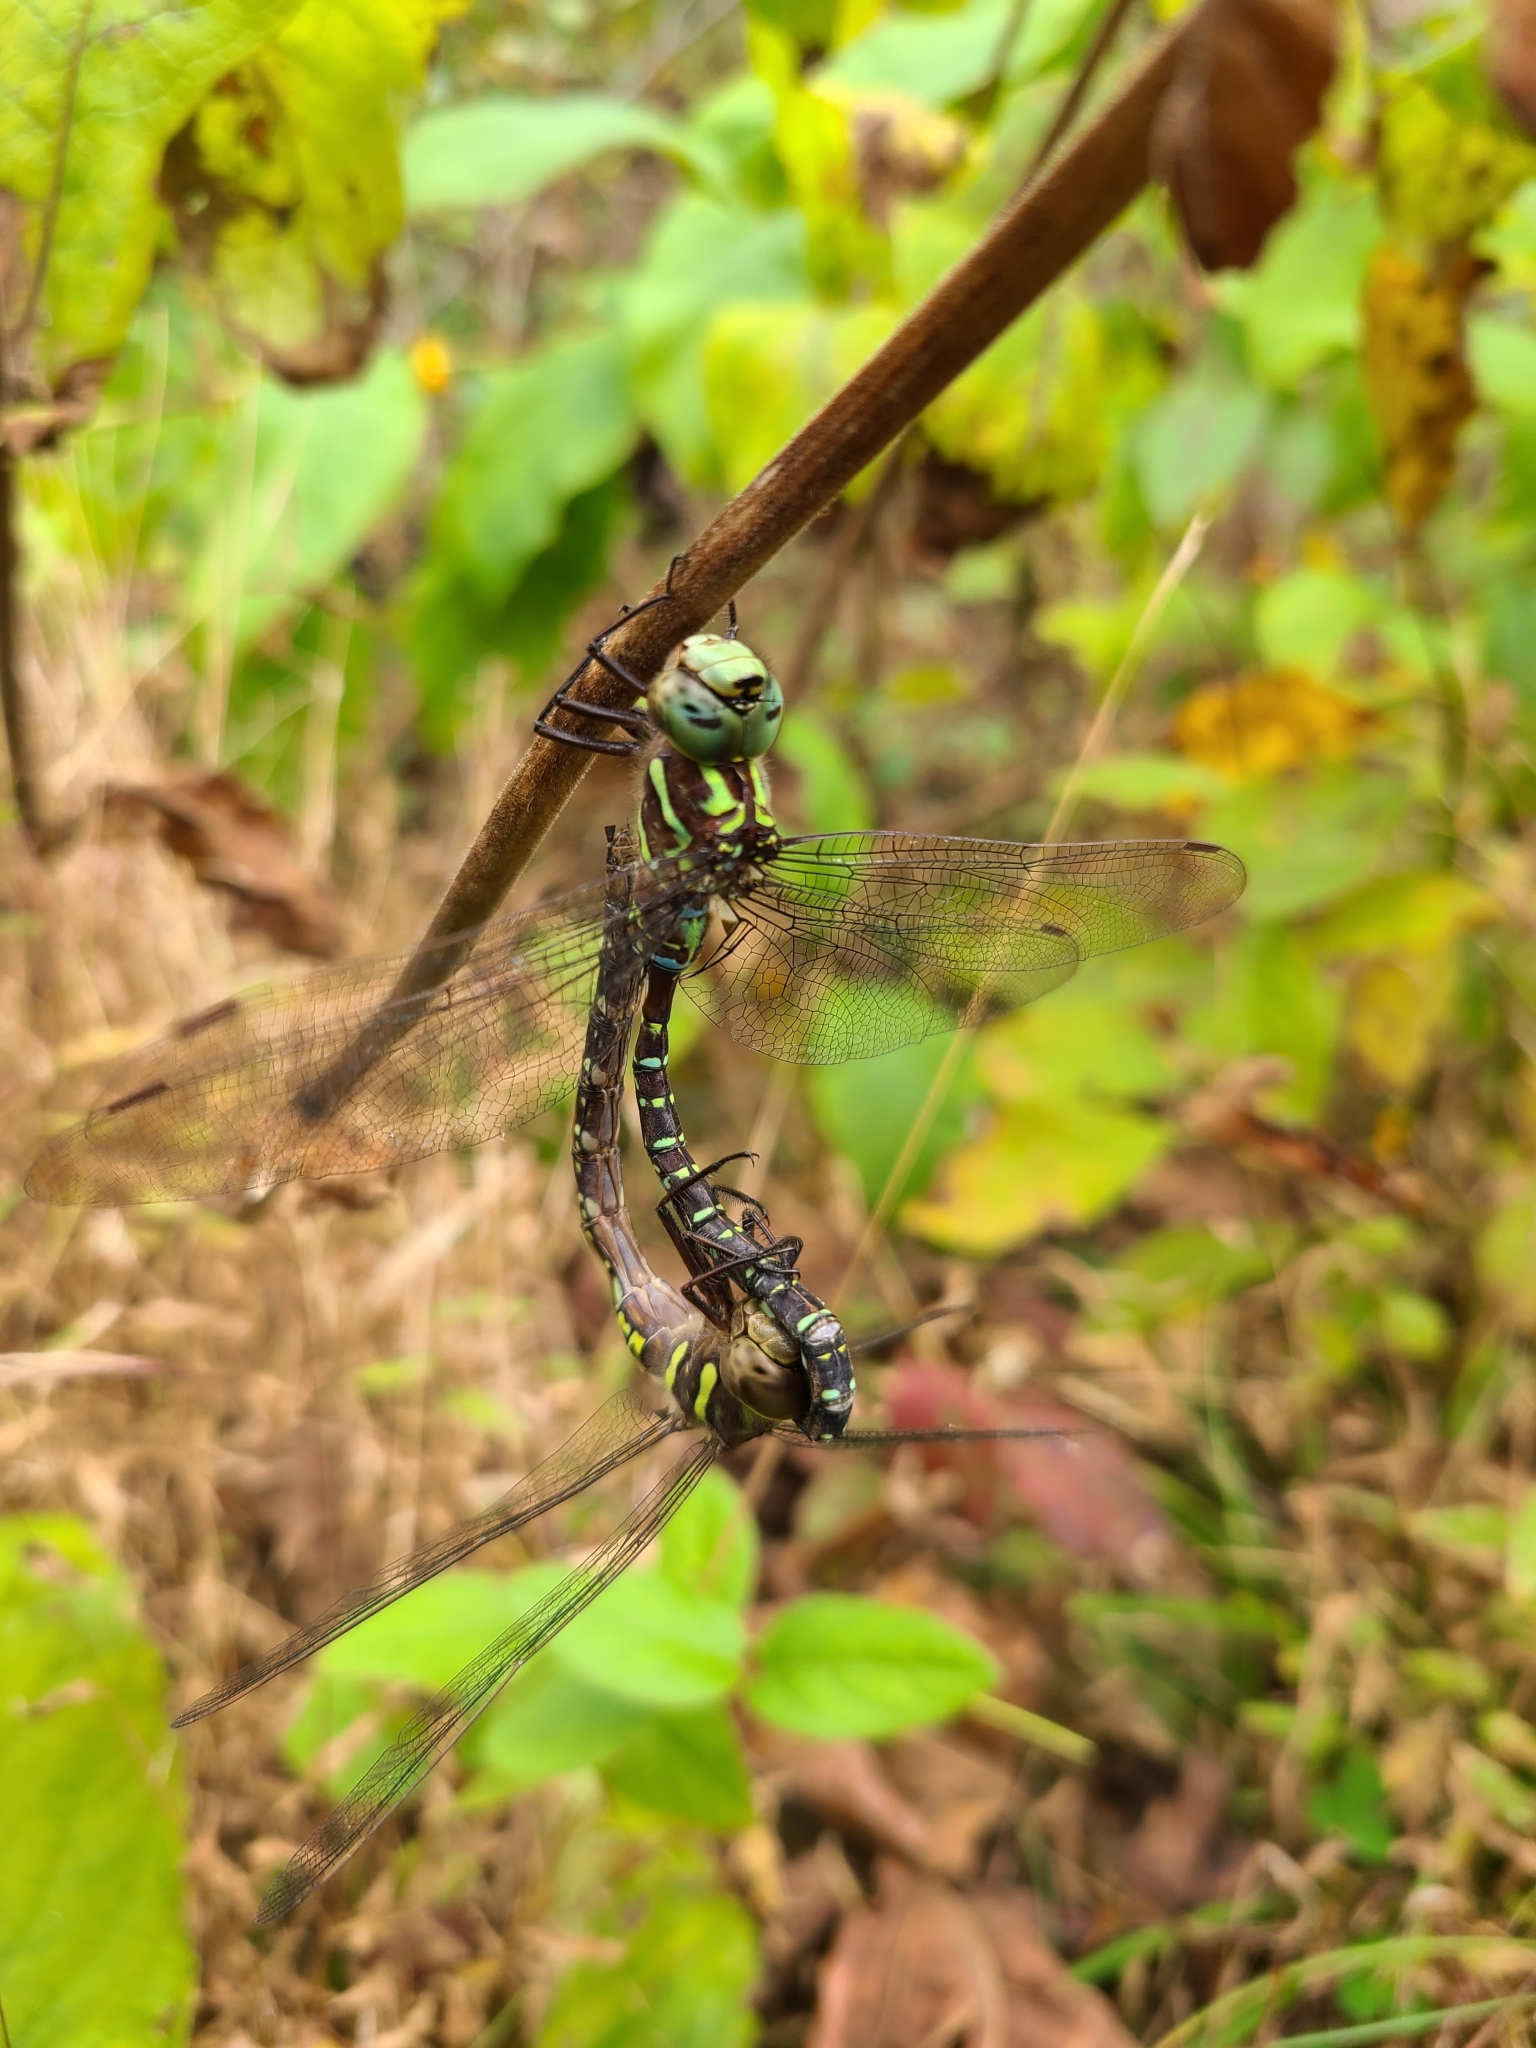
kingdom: Animalia
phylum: Arthropoda
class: Insecta
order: Odonata
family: Aeshnidae
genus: Aeshna
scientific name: Aeshna umbrosa
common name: Shadow darner
